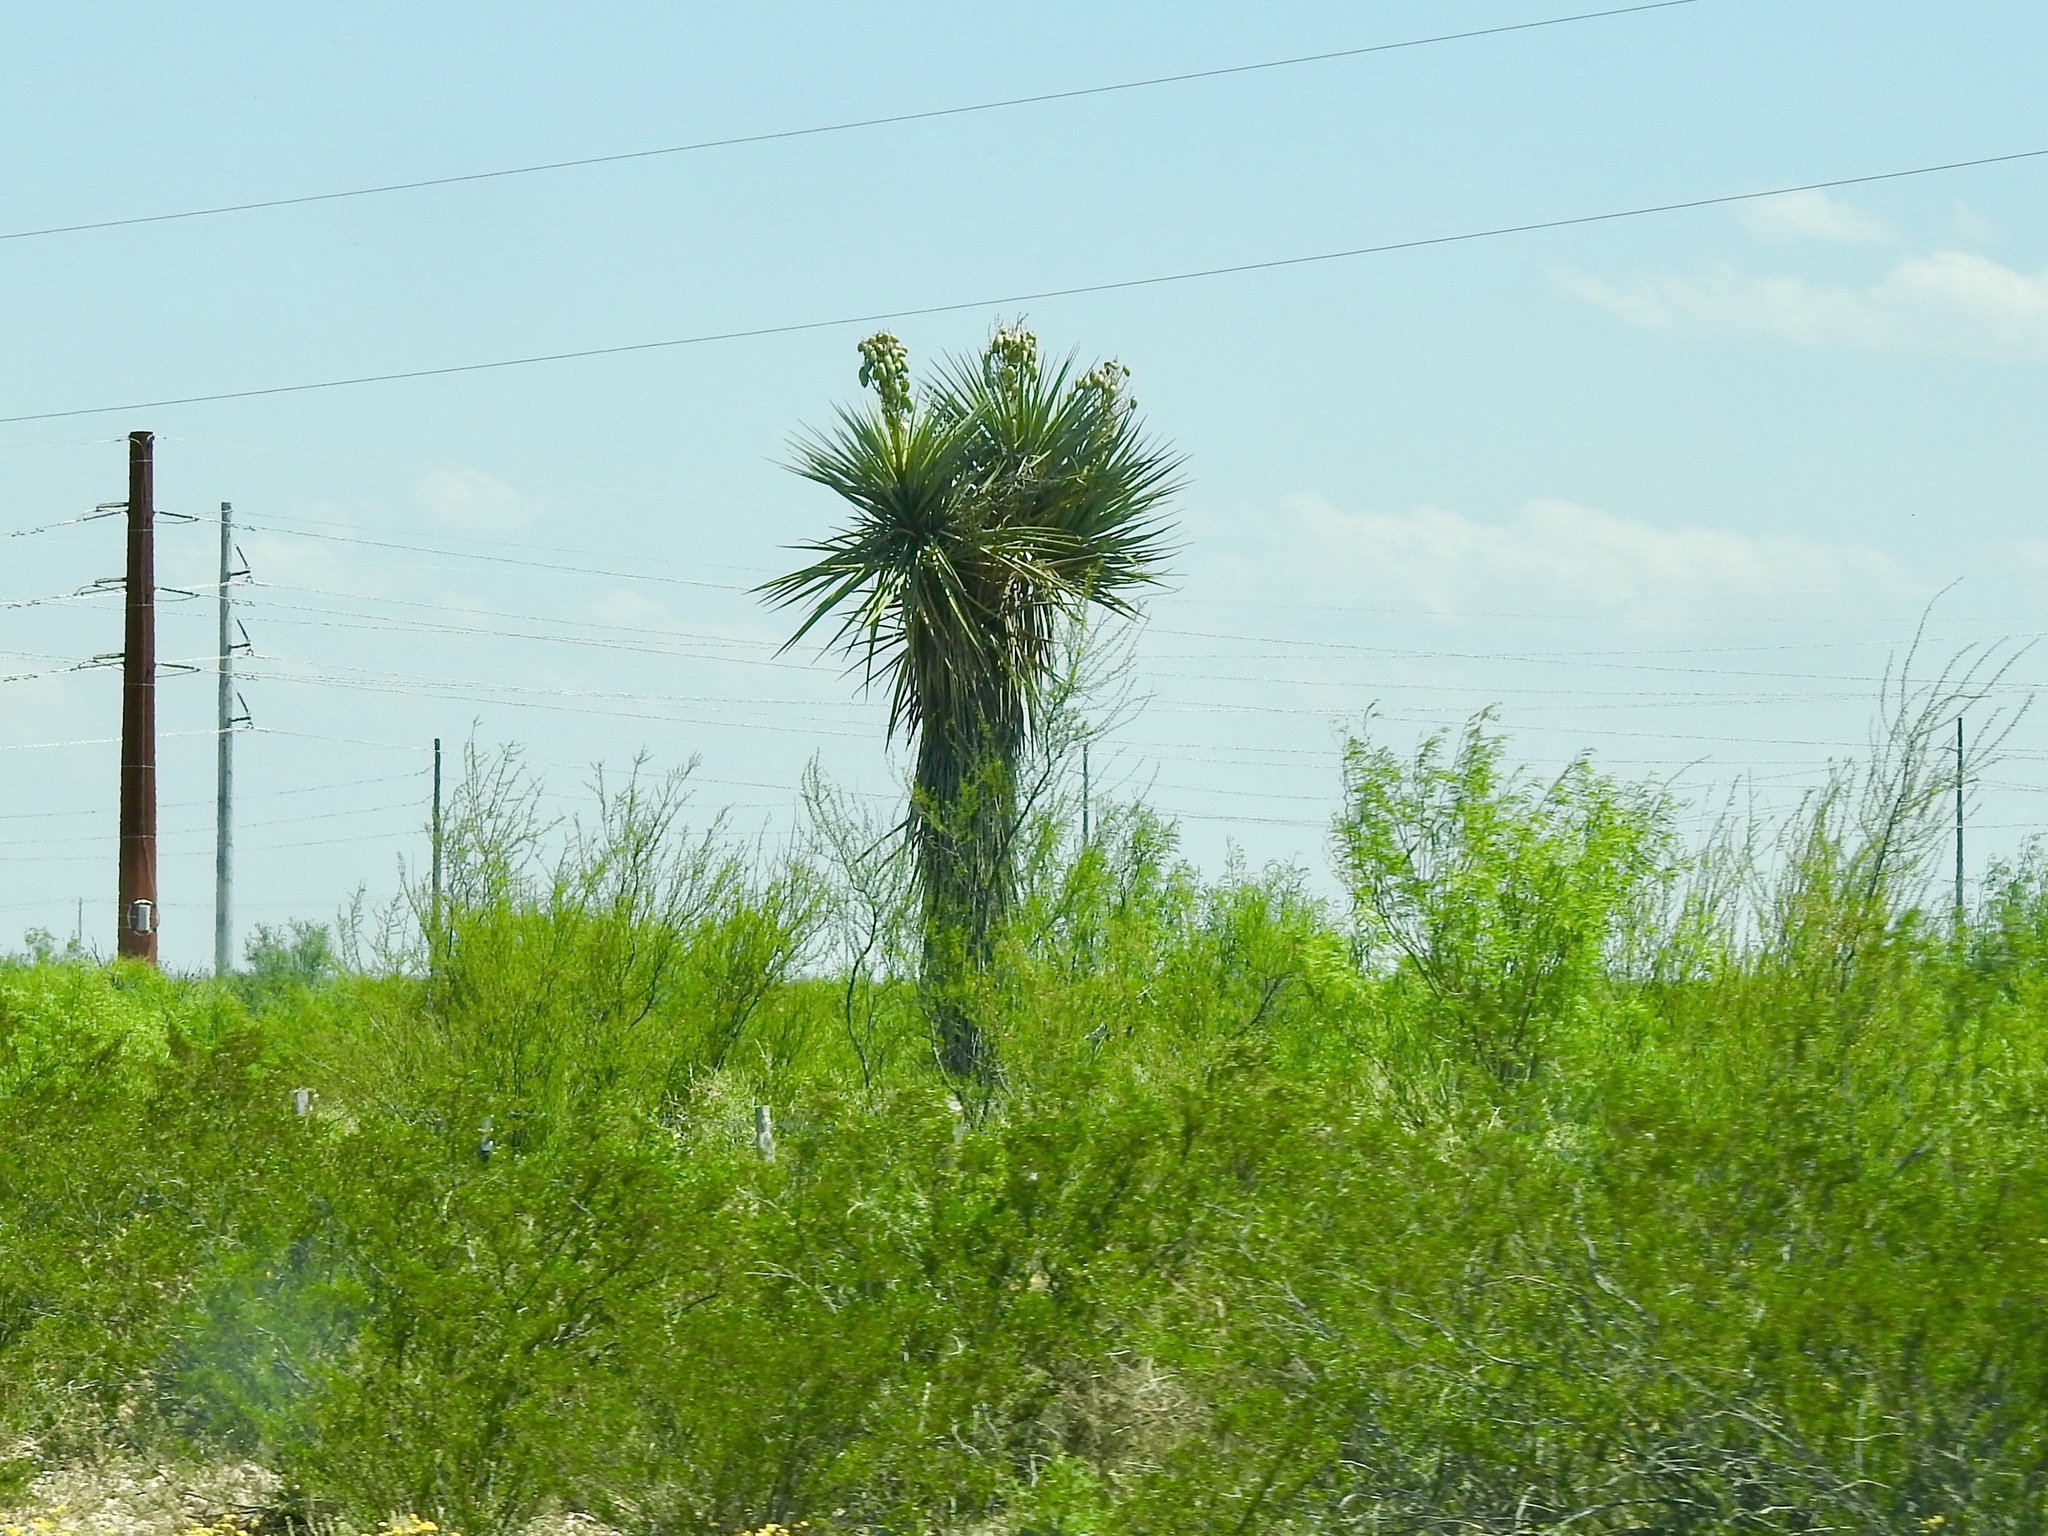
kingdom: Plantae
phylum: Tracheophyta
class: Liliopsida
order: Asparagales
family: Asparagaceae
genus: Yucca
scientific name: Yucca treculiana
